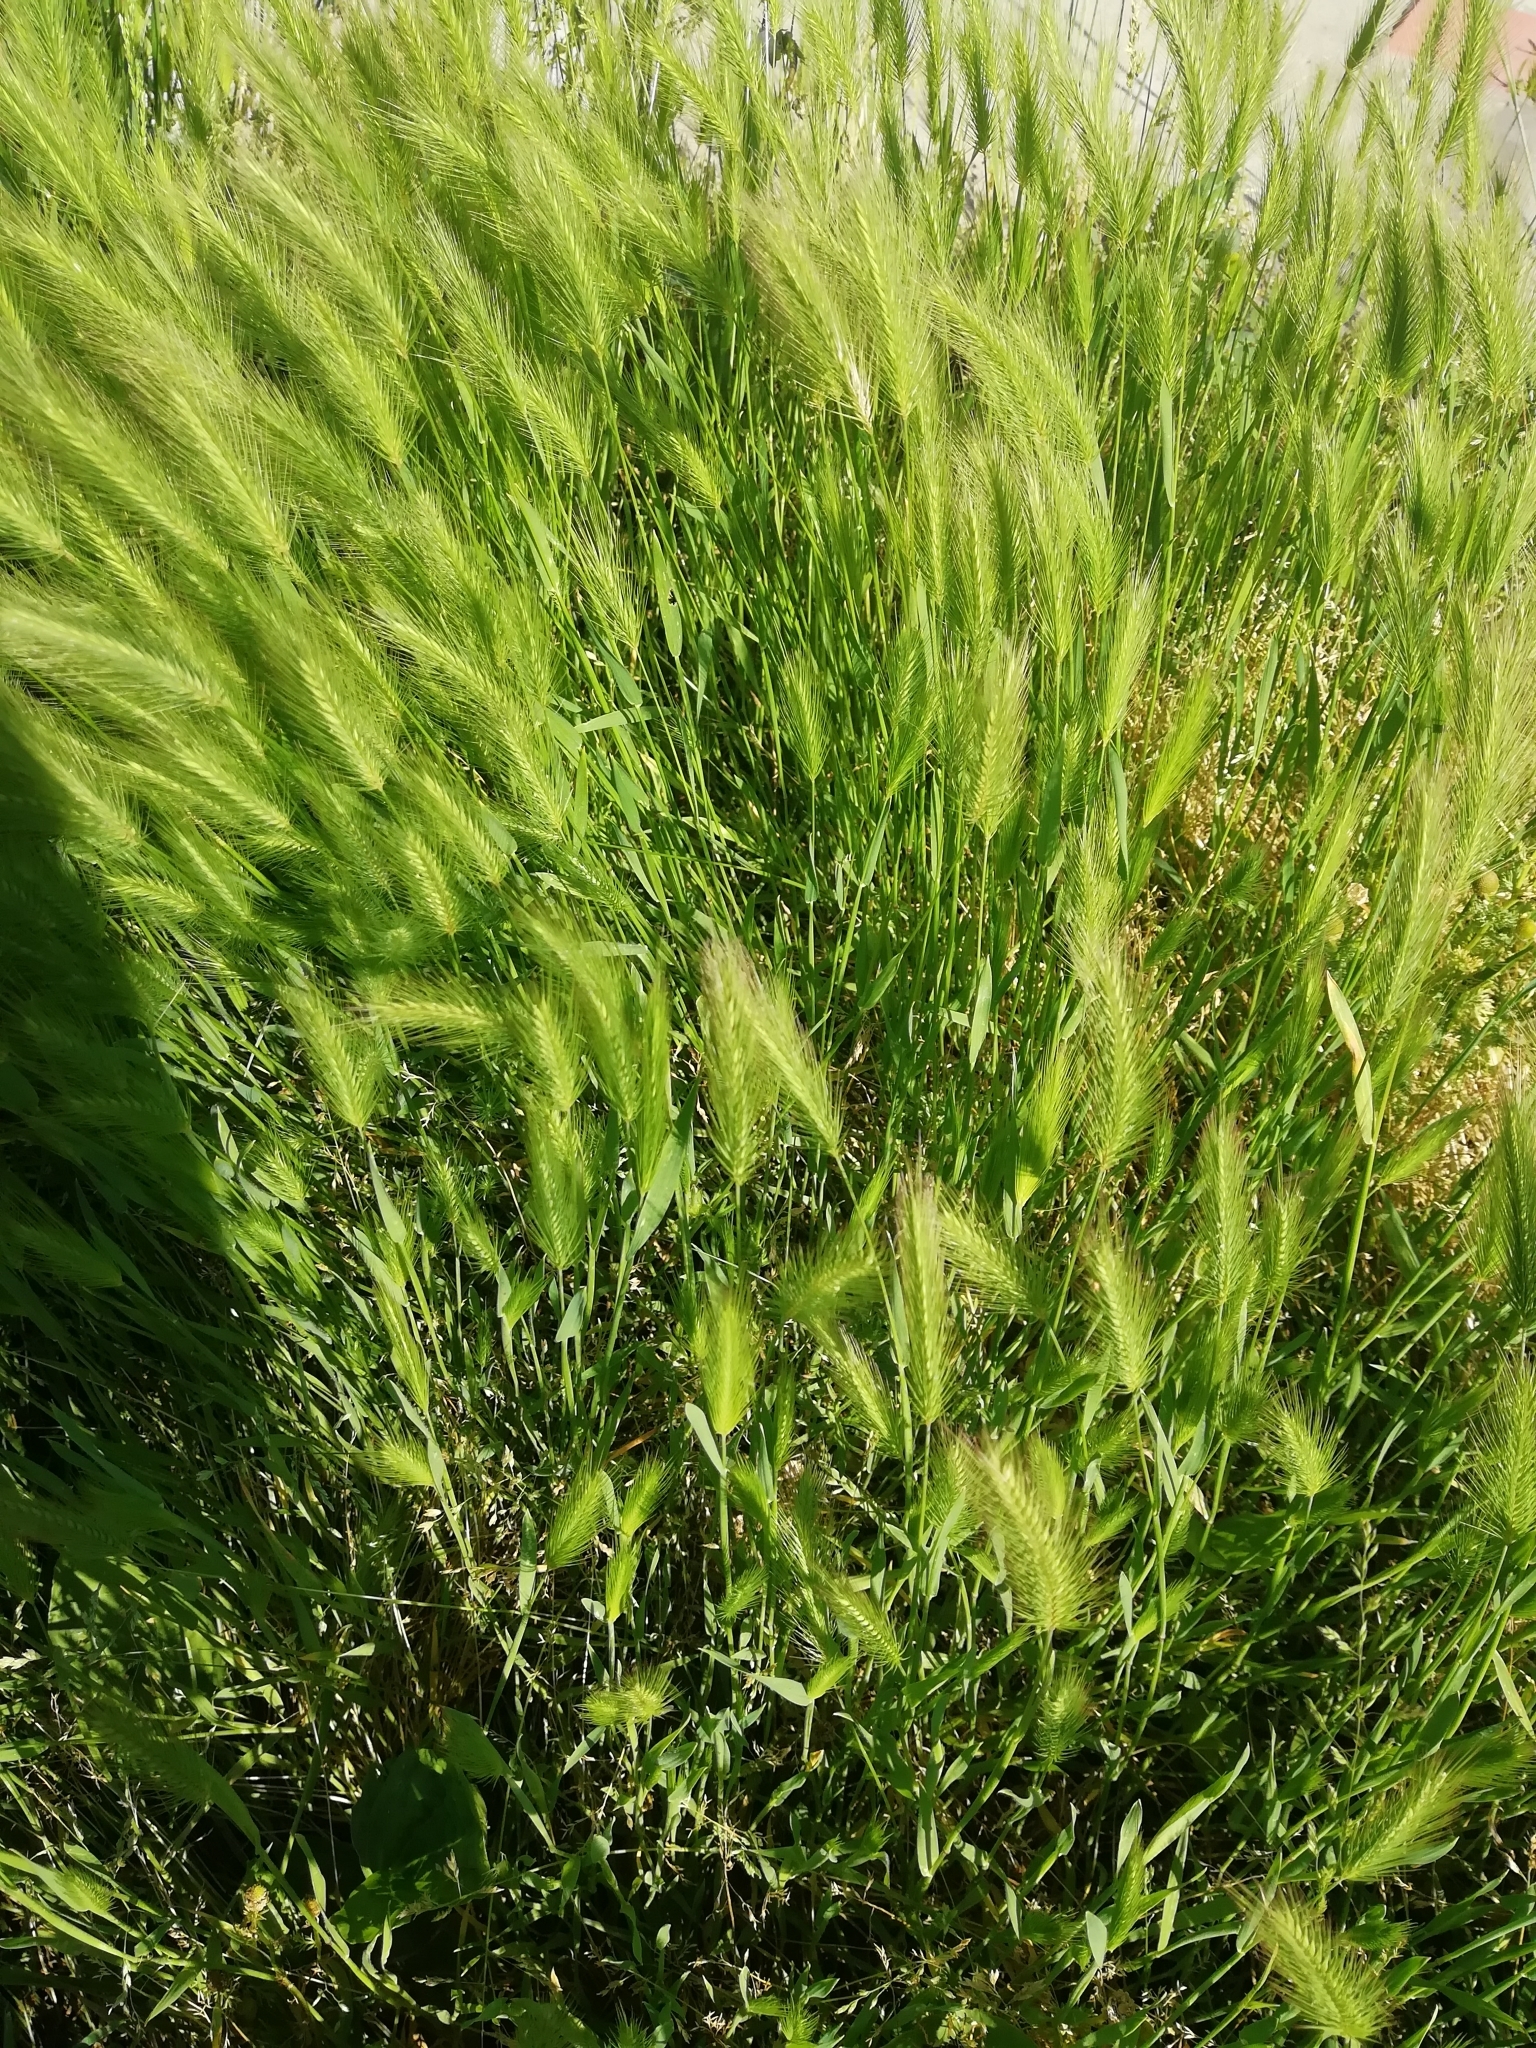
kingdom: Plantae
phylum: Tracheophyta
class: Liliopsida
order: Poales
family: Poaceae
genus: Hordeum
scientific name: Hordeum murinum
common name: Wall barley
